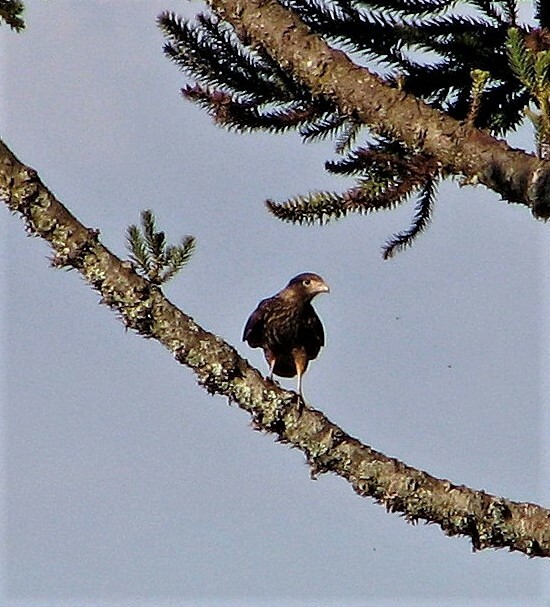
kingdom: Animalia
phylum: Chordata
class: Aves
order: Falconiformes
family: Falconidae
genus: Daptrius
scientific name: Daptrius
